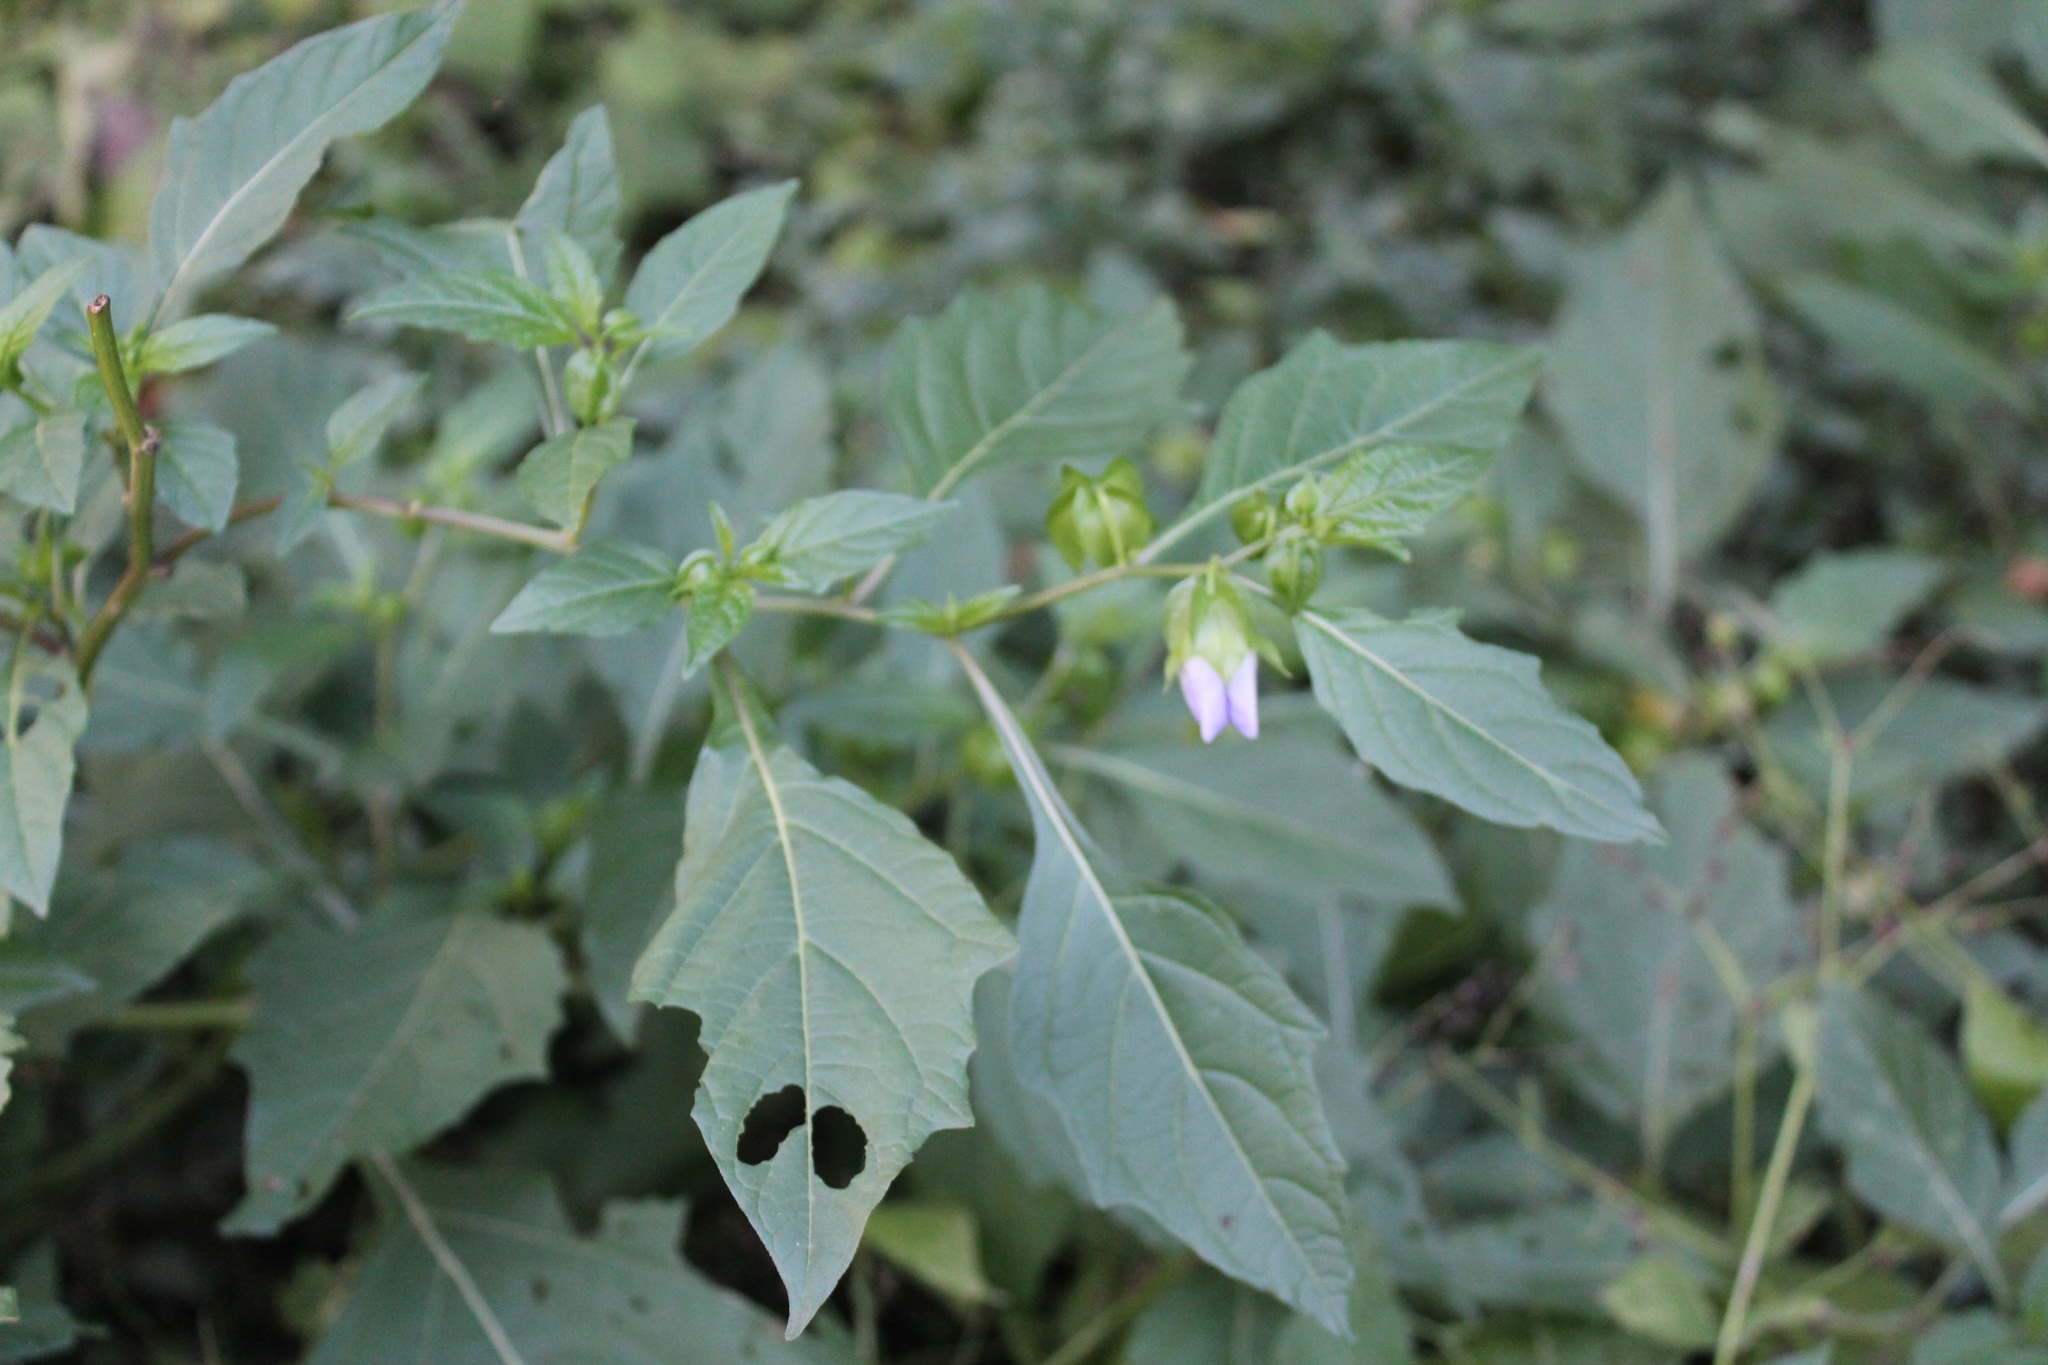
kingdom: Plantae
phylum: Tracheophyta
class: Magnoliopsida
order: Solanales
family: Solanaceae
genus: Nicandra
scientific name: Nicandra physalodes
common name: Apple-of-peru
